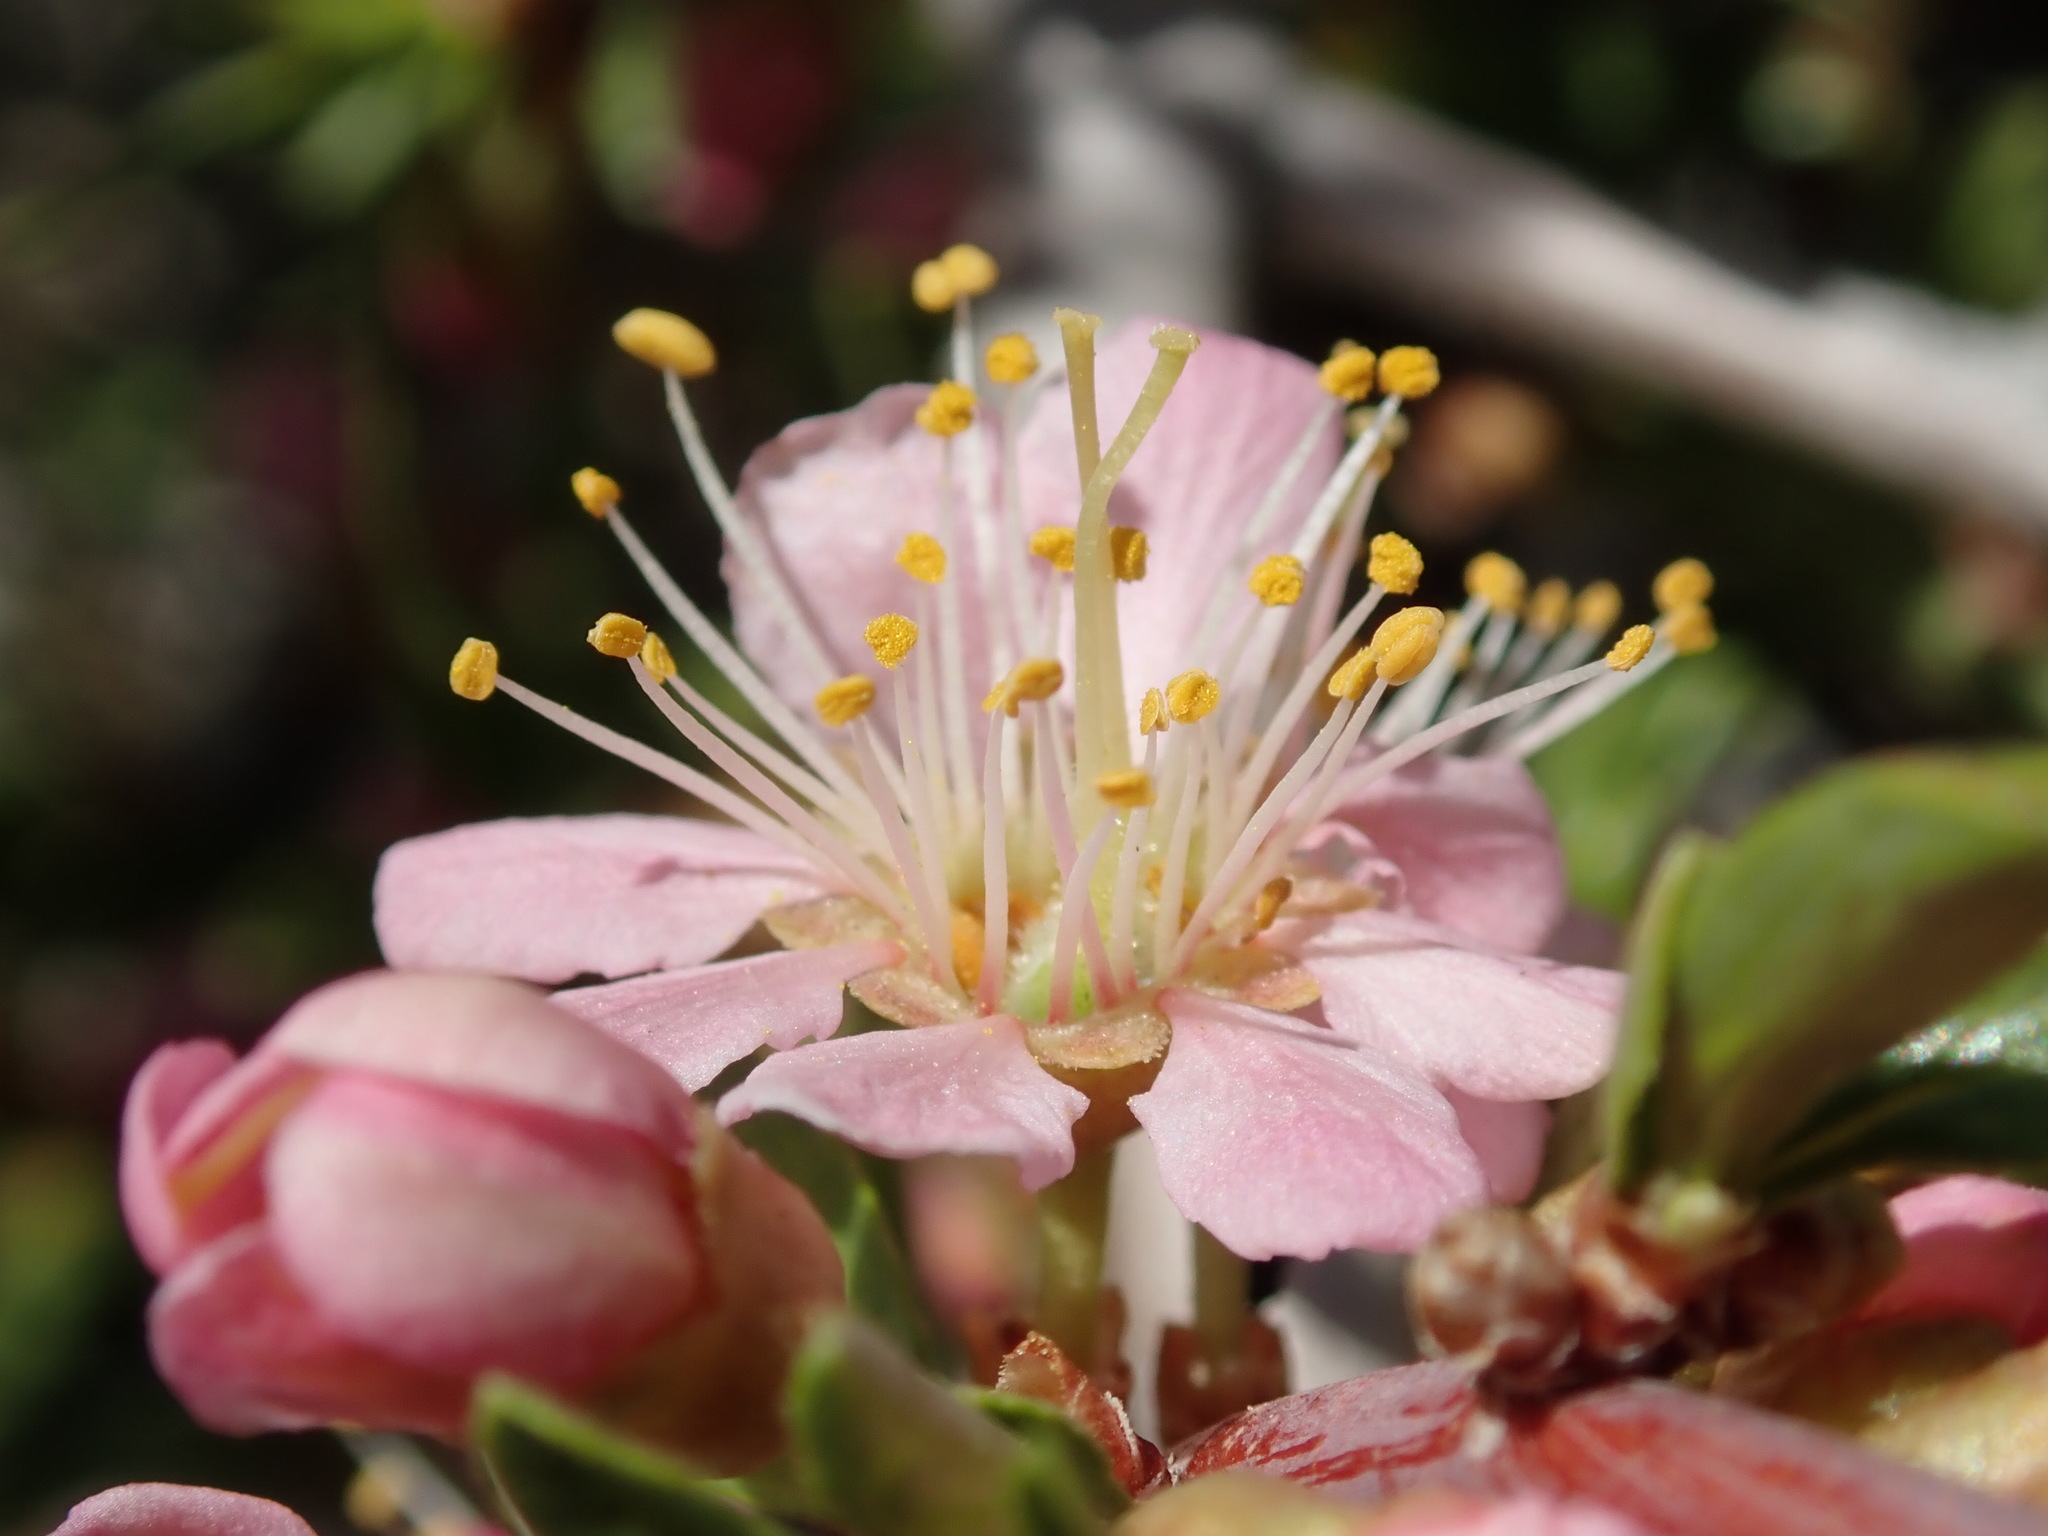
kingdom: Plantae
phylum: Tracheophyta
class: Magnoliopsida
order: Rosales
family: Rosaceae
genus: Prunus
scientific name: Prunus andersonii
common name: Desert peach
